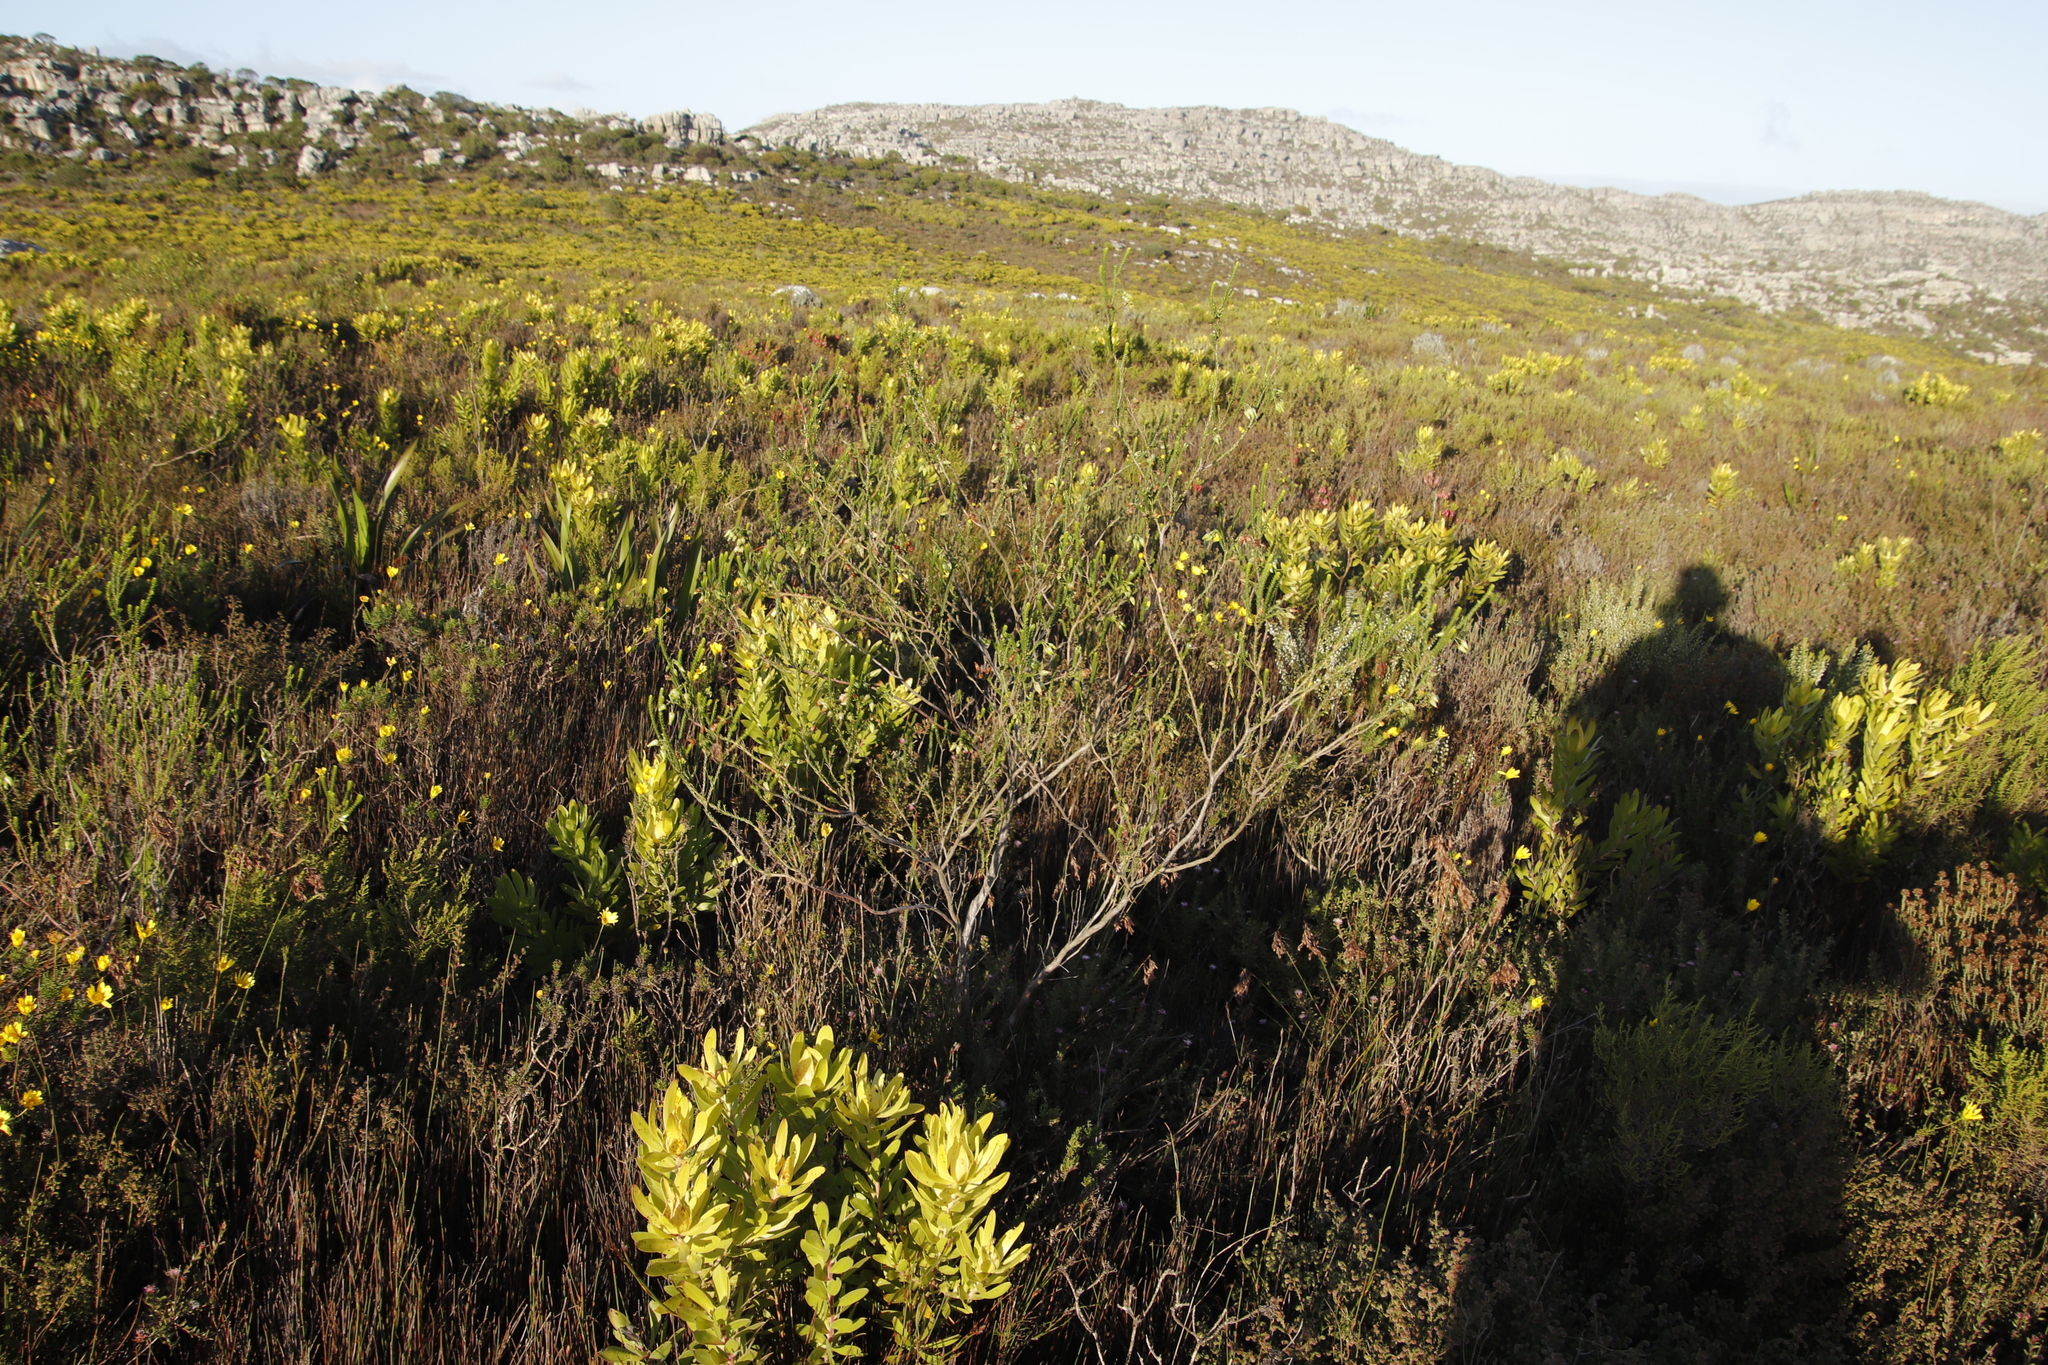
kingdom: Plantae
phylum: Tracheophyta
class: Magnoliopsida
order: Ericales
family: Ericaceae
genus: Erica
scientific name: Erica urna-viridis
